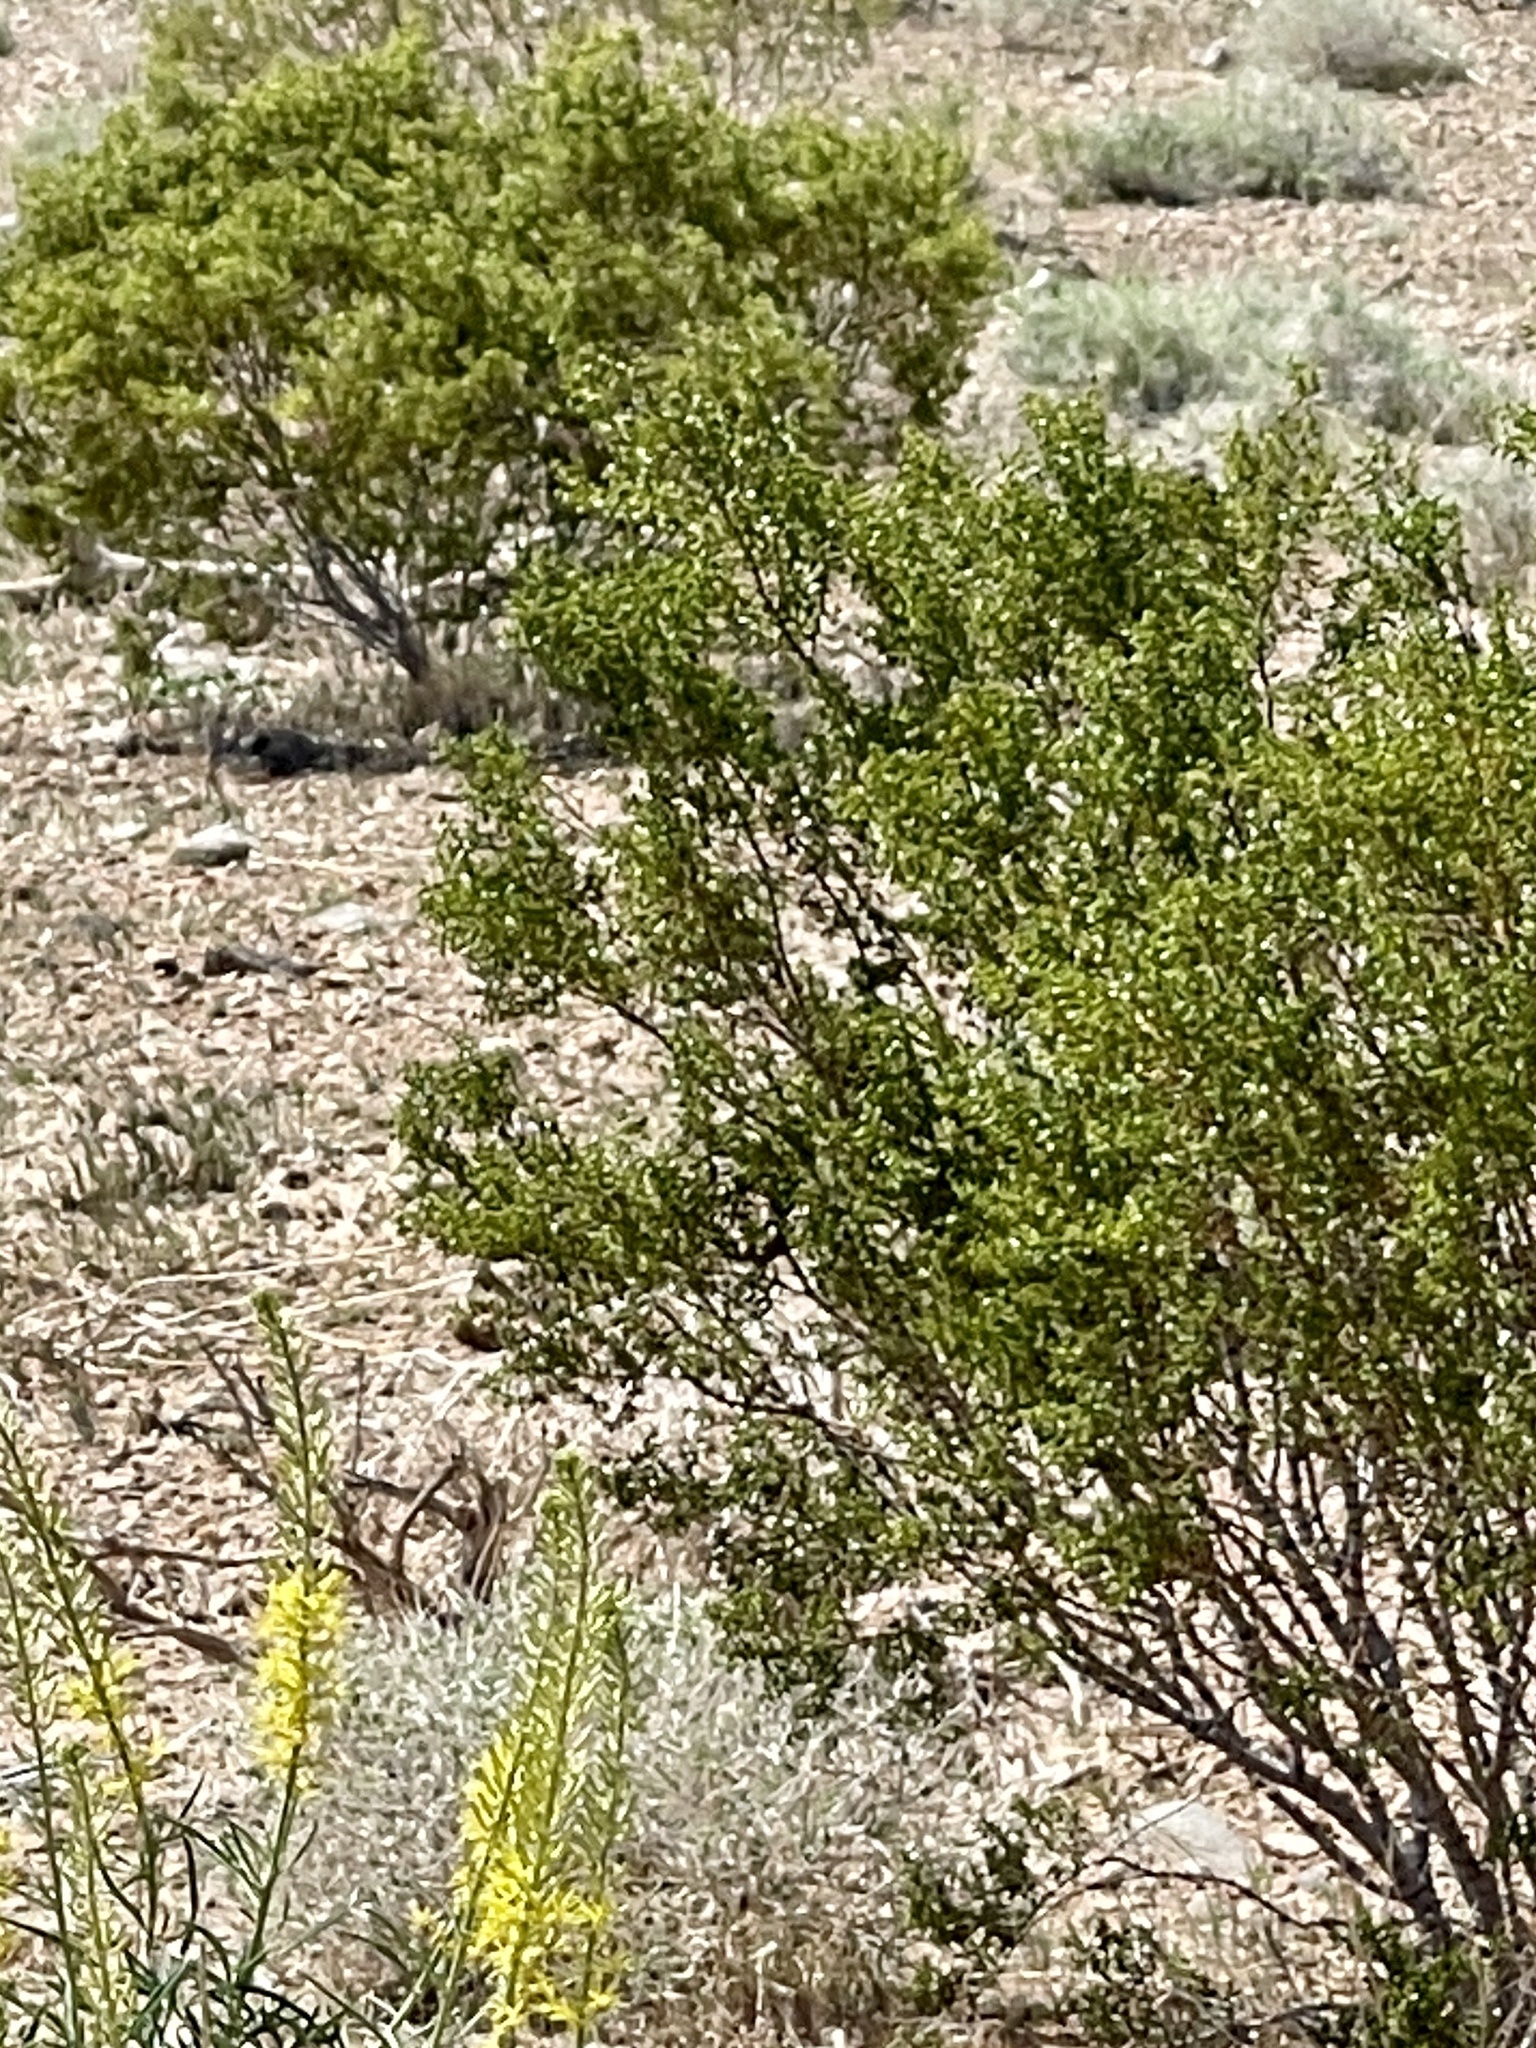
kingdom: Plantae
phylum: Tracheophyta
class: Magnoliopsida
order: Zygophyllales
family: Zygophyllaceae
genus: Larrea
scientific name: Larrea tridentata
